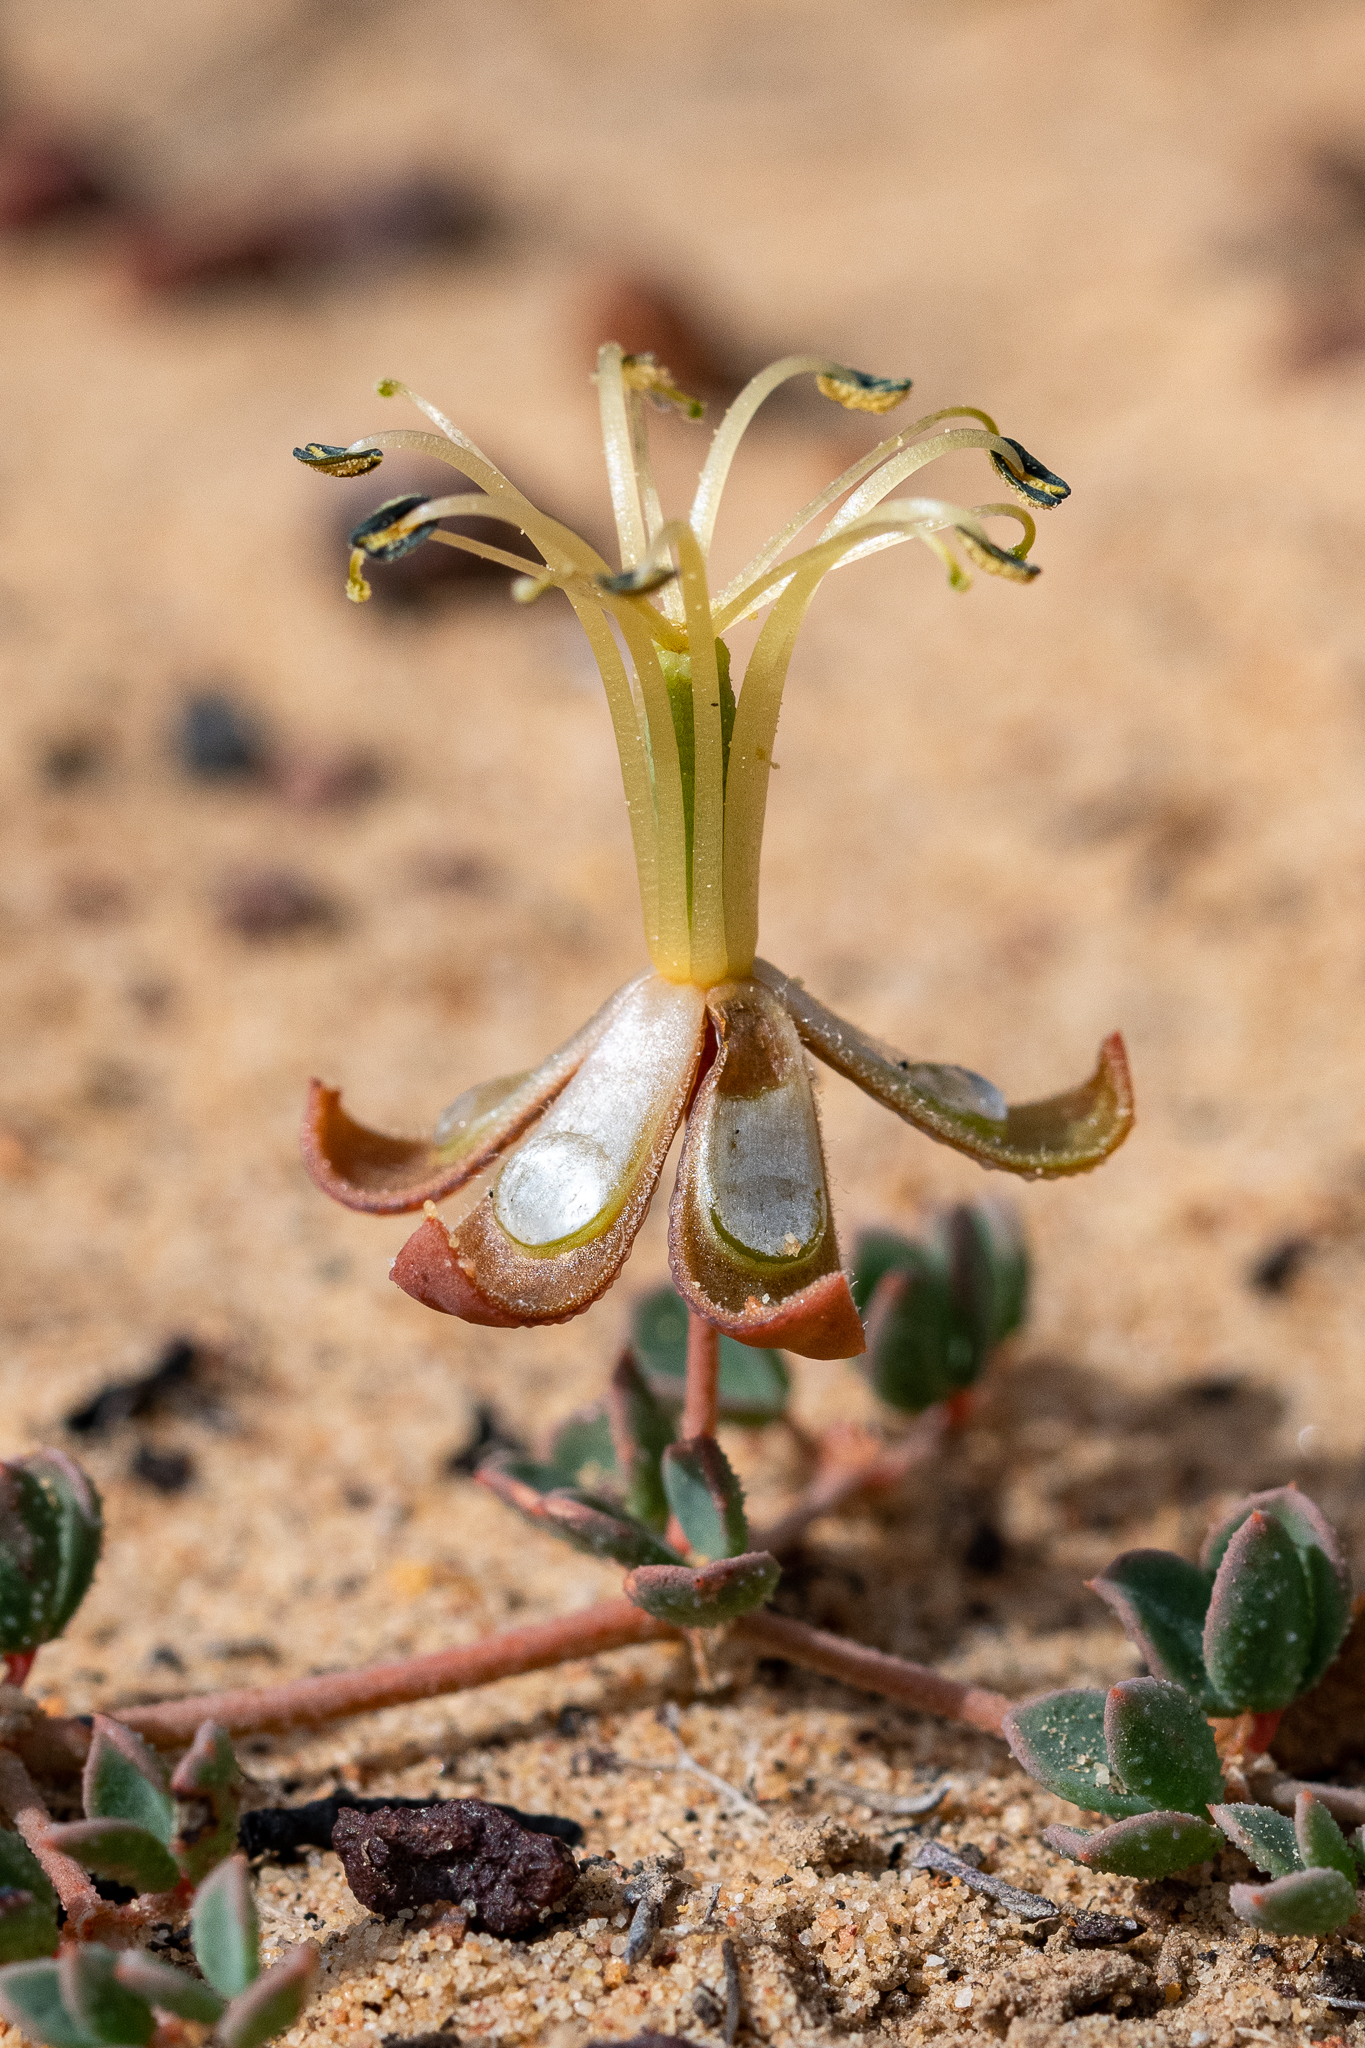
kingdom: Plantae
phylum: Tracheophyta
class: Magnoliopsida
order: Zygophyllales
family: Zygophyllaceae
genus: Seetzenia
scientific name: Seetzenia lanata
